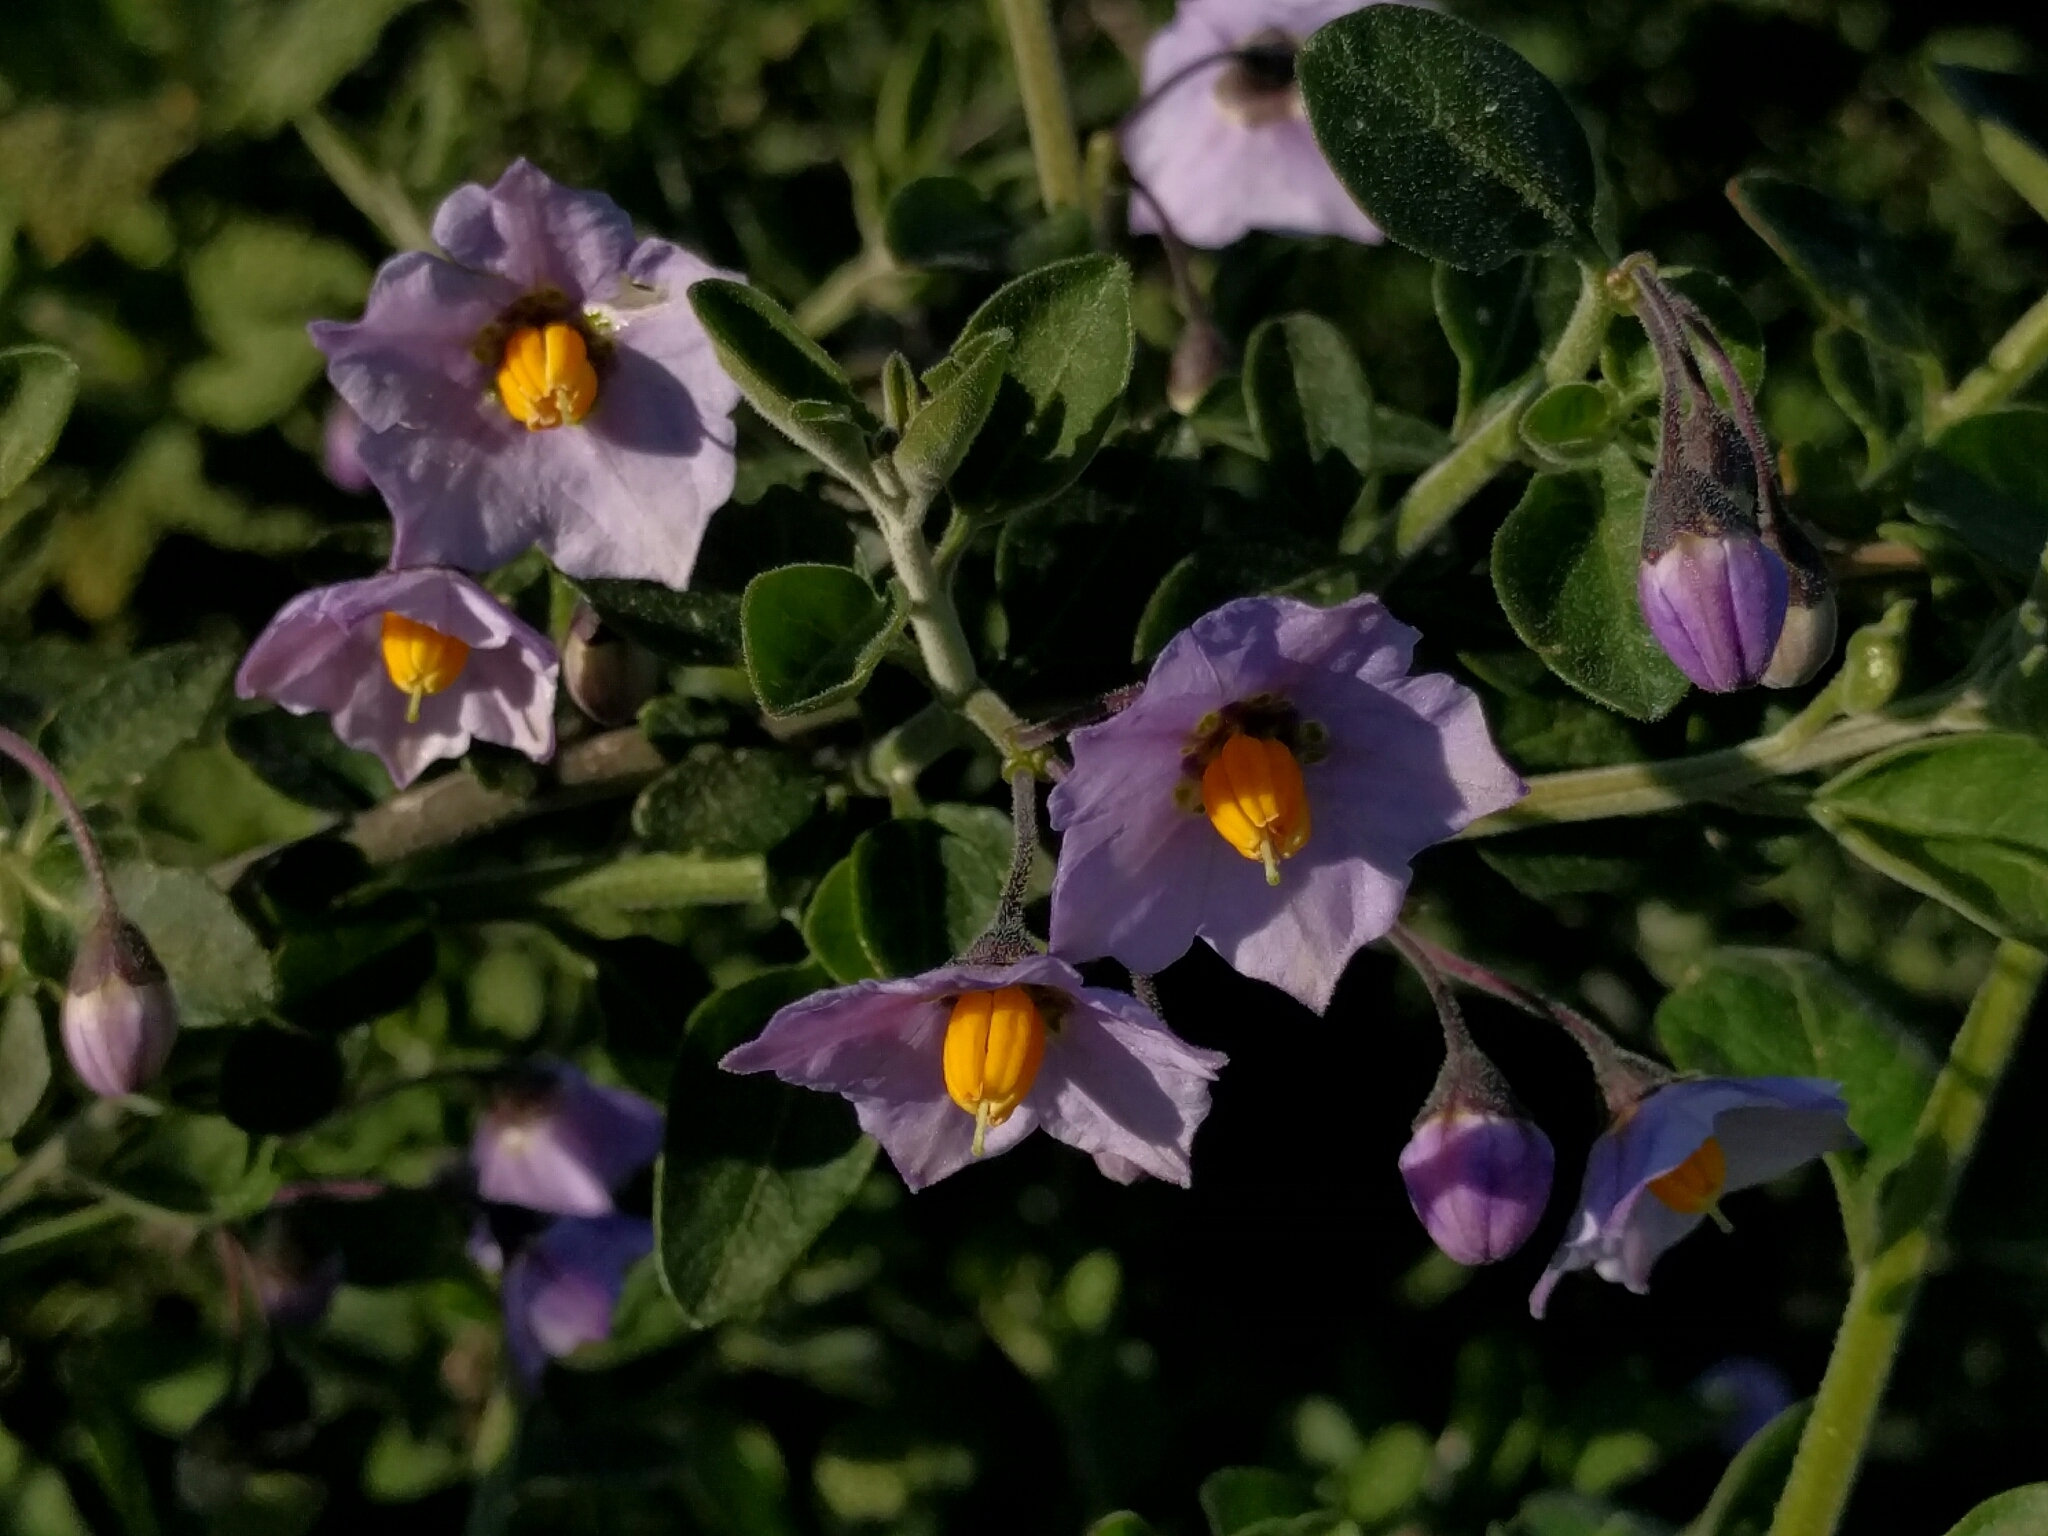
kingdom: Plantae
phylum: Tracheophyta
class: Magnoliopsida
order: Solanales
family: Solanaceae
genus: Solanum
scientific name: Solanum umbelliferum
